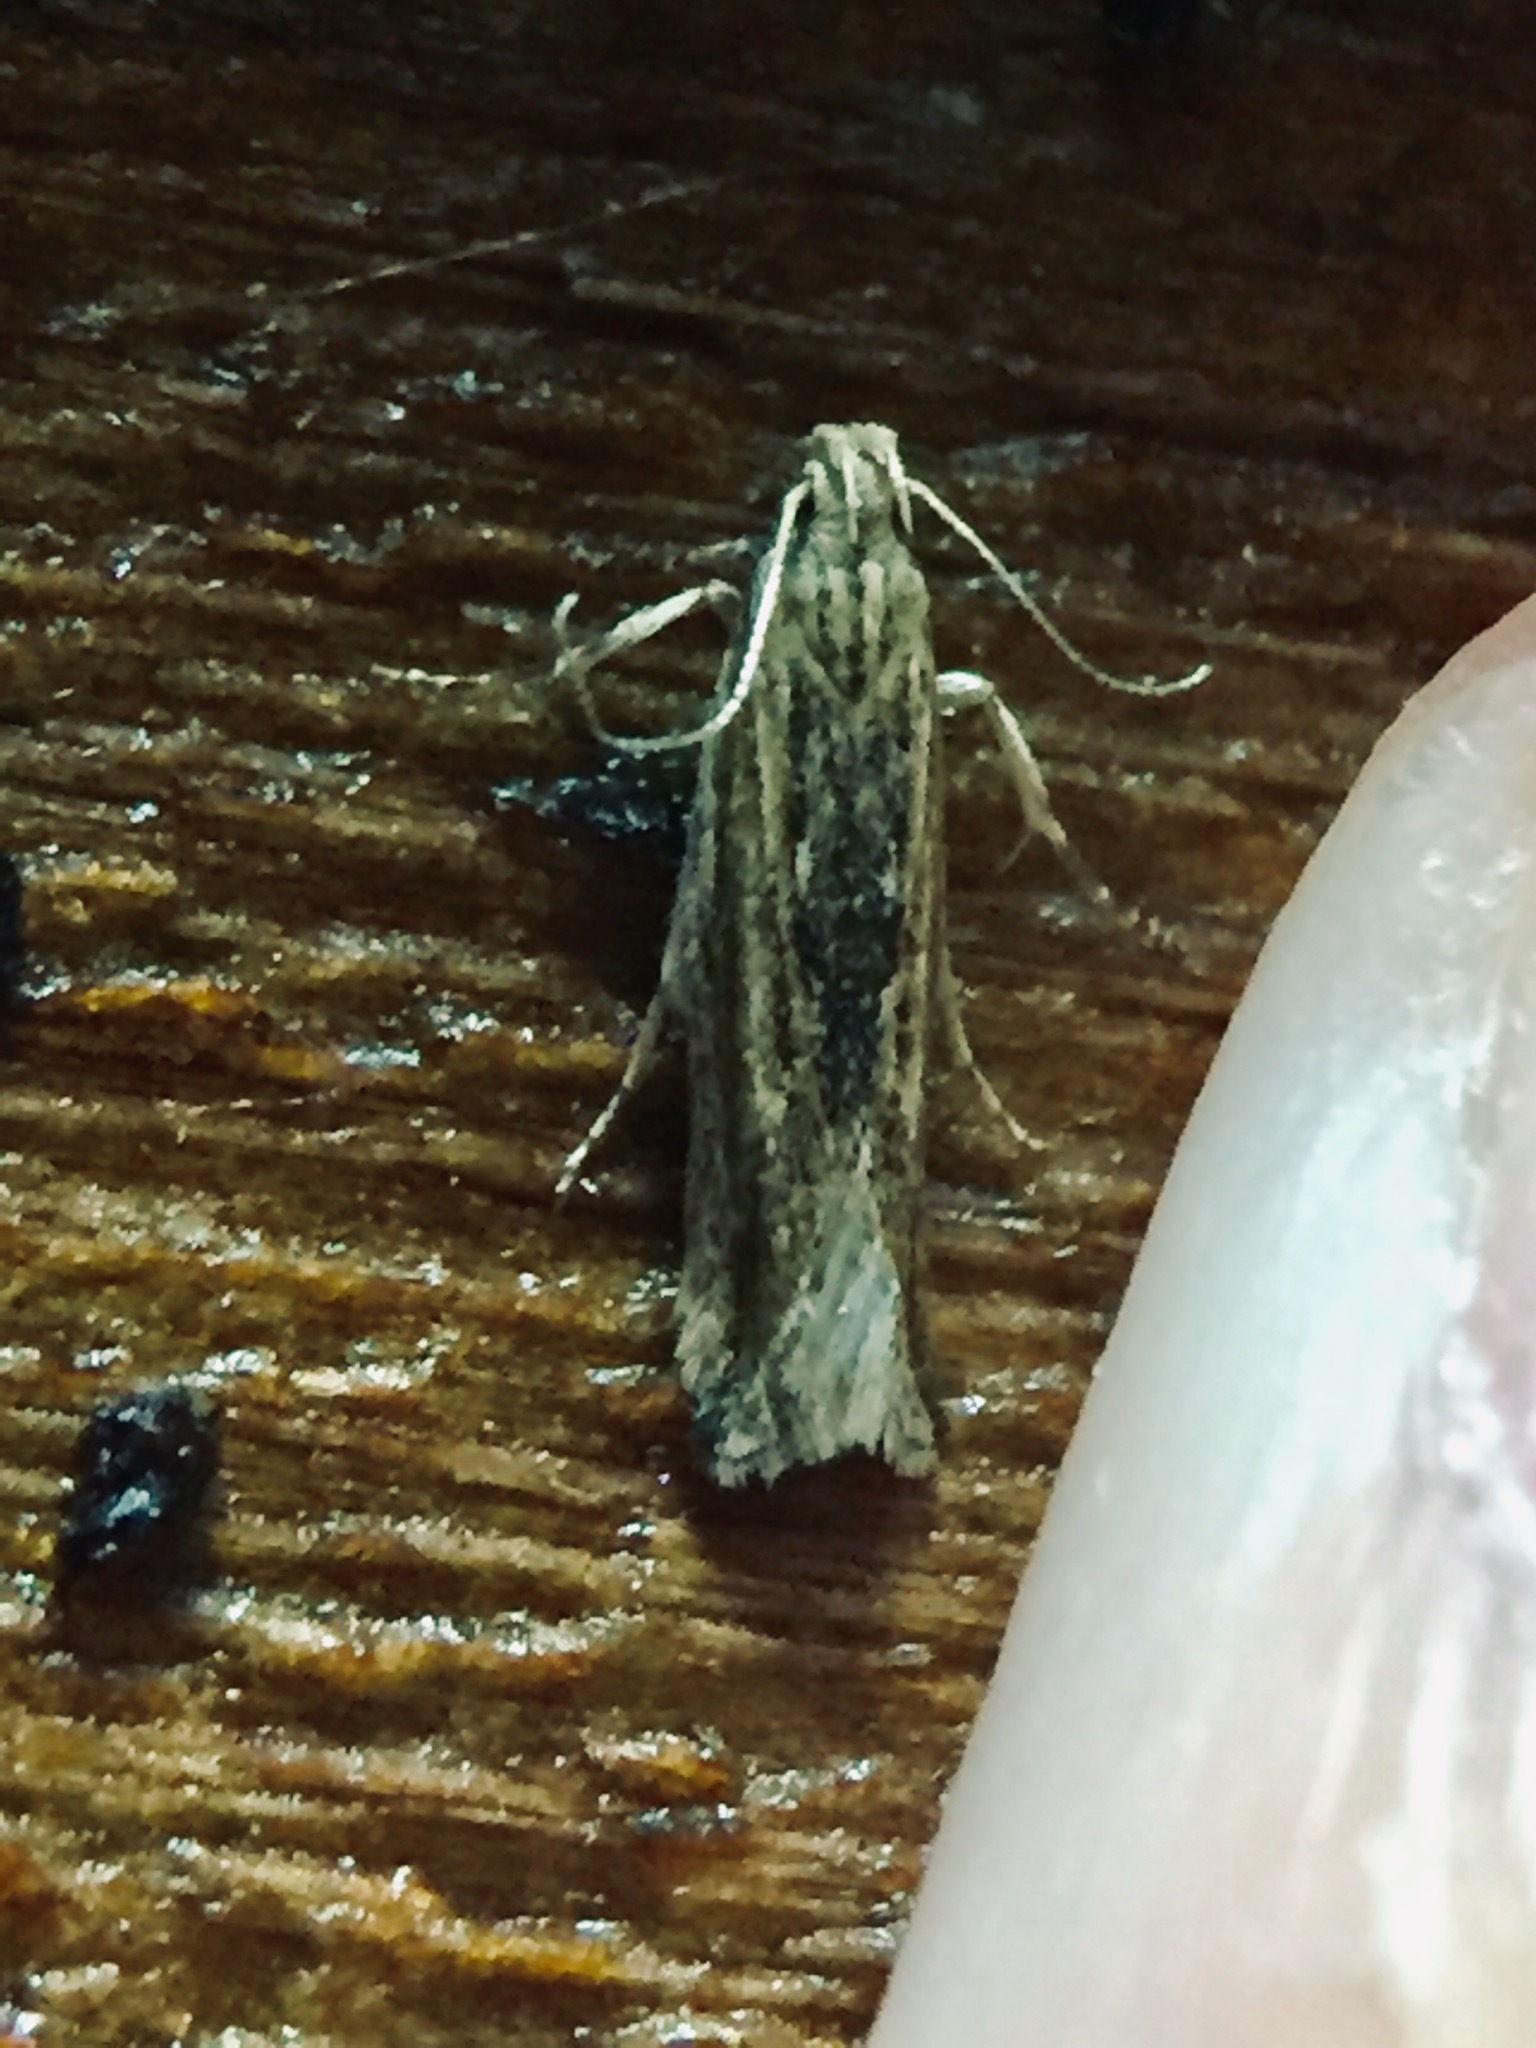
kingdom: Animalia
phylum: Arthropoda
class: Insecta
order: Lepidoptera
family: Gelechiidae
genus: Symmetrischema
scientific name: Symmetrischema striatella
